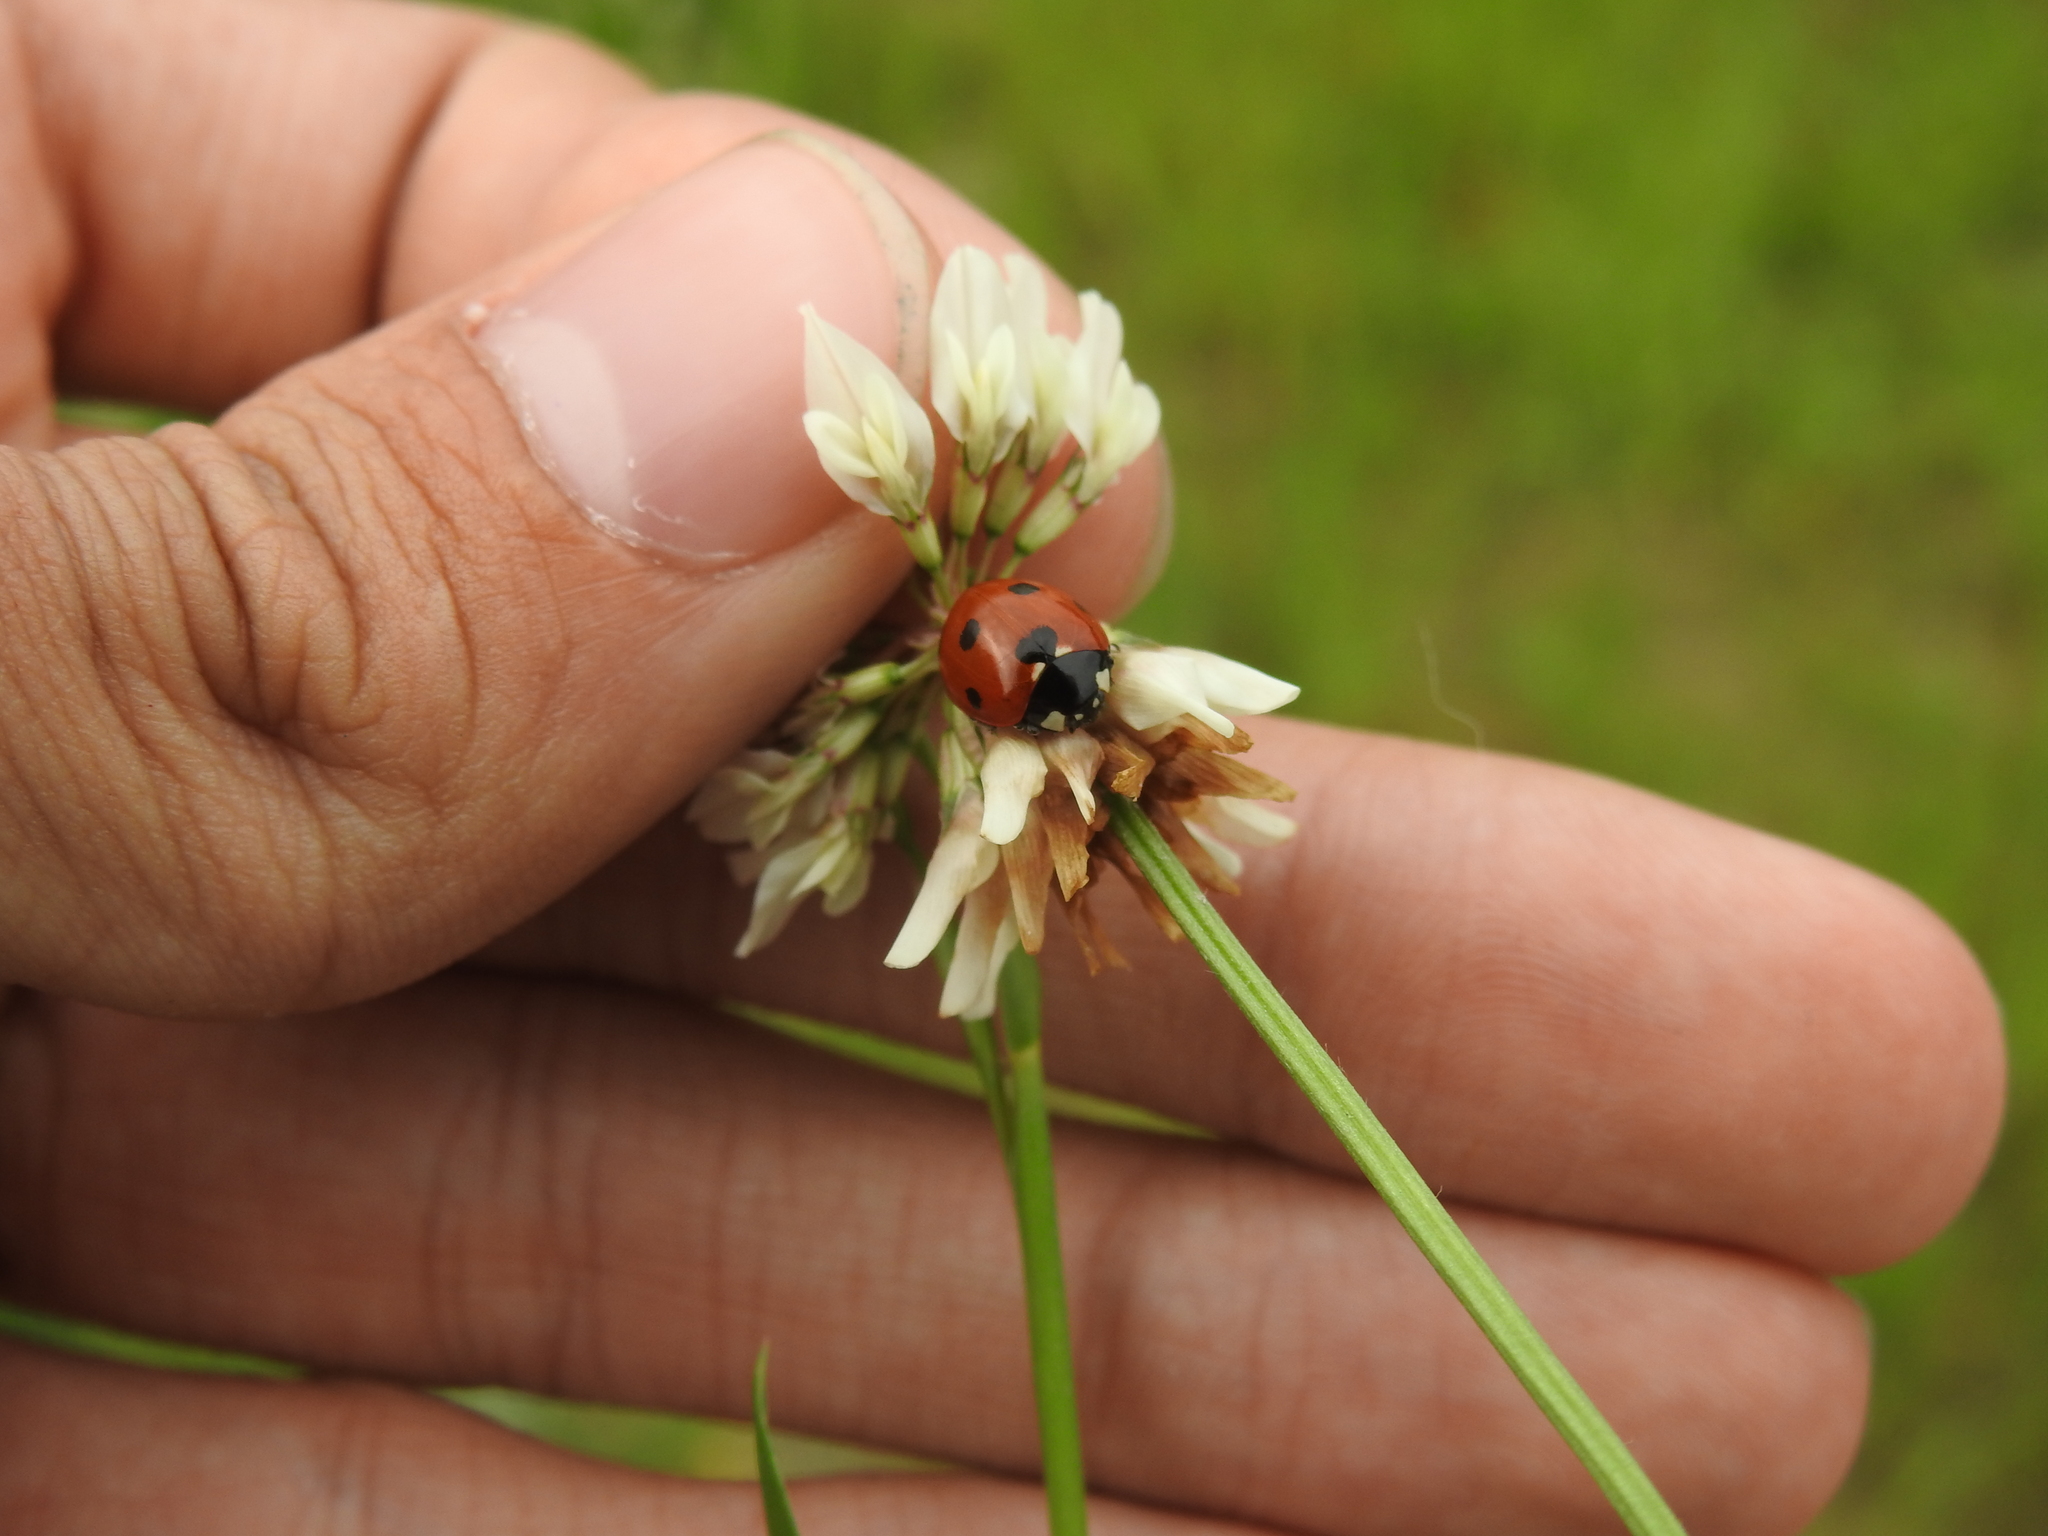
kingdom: Animalia
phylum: Arthropoda
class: Insecta
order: Coleoptera
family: Coccinellidae
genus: Coccinella
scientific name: Coccinella septempunctata
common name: Sevenspotted lady beetle
